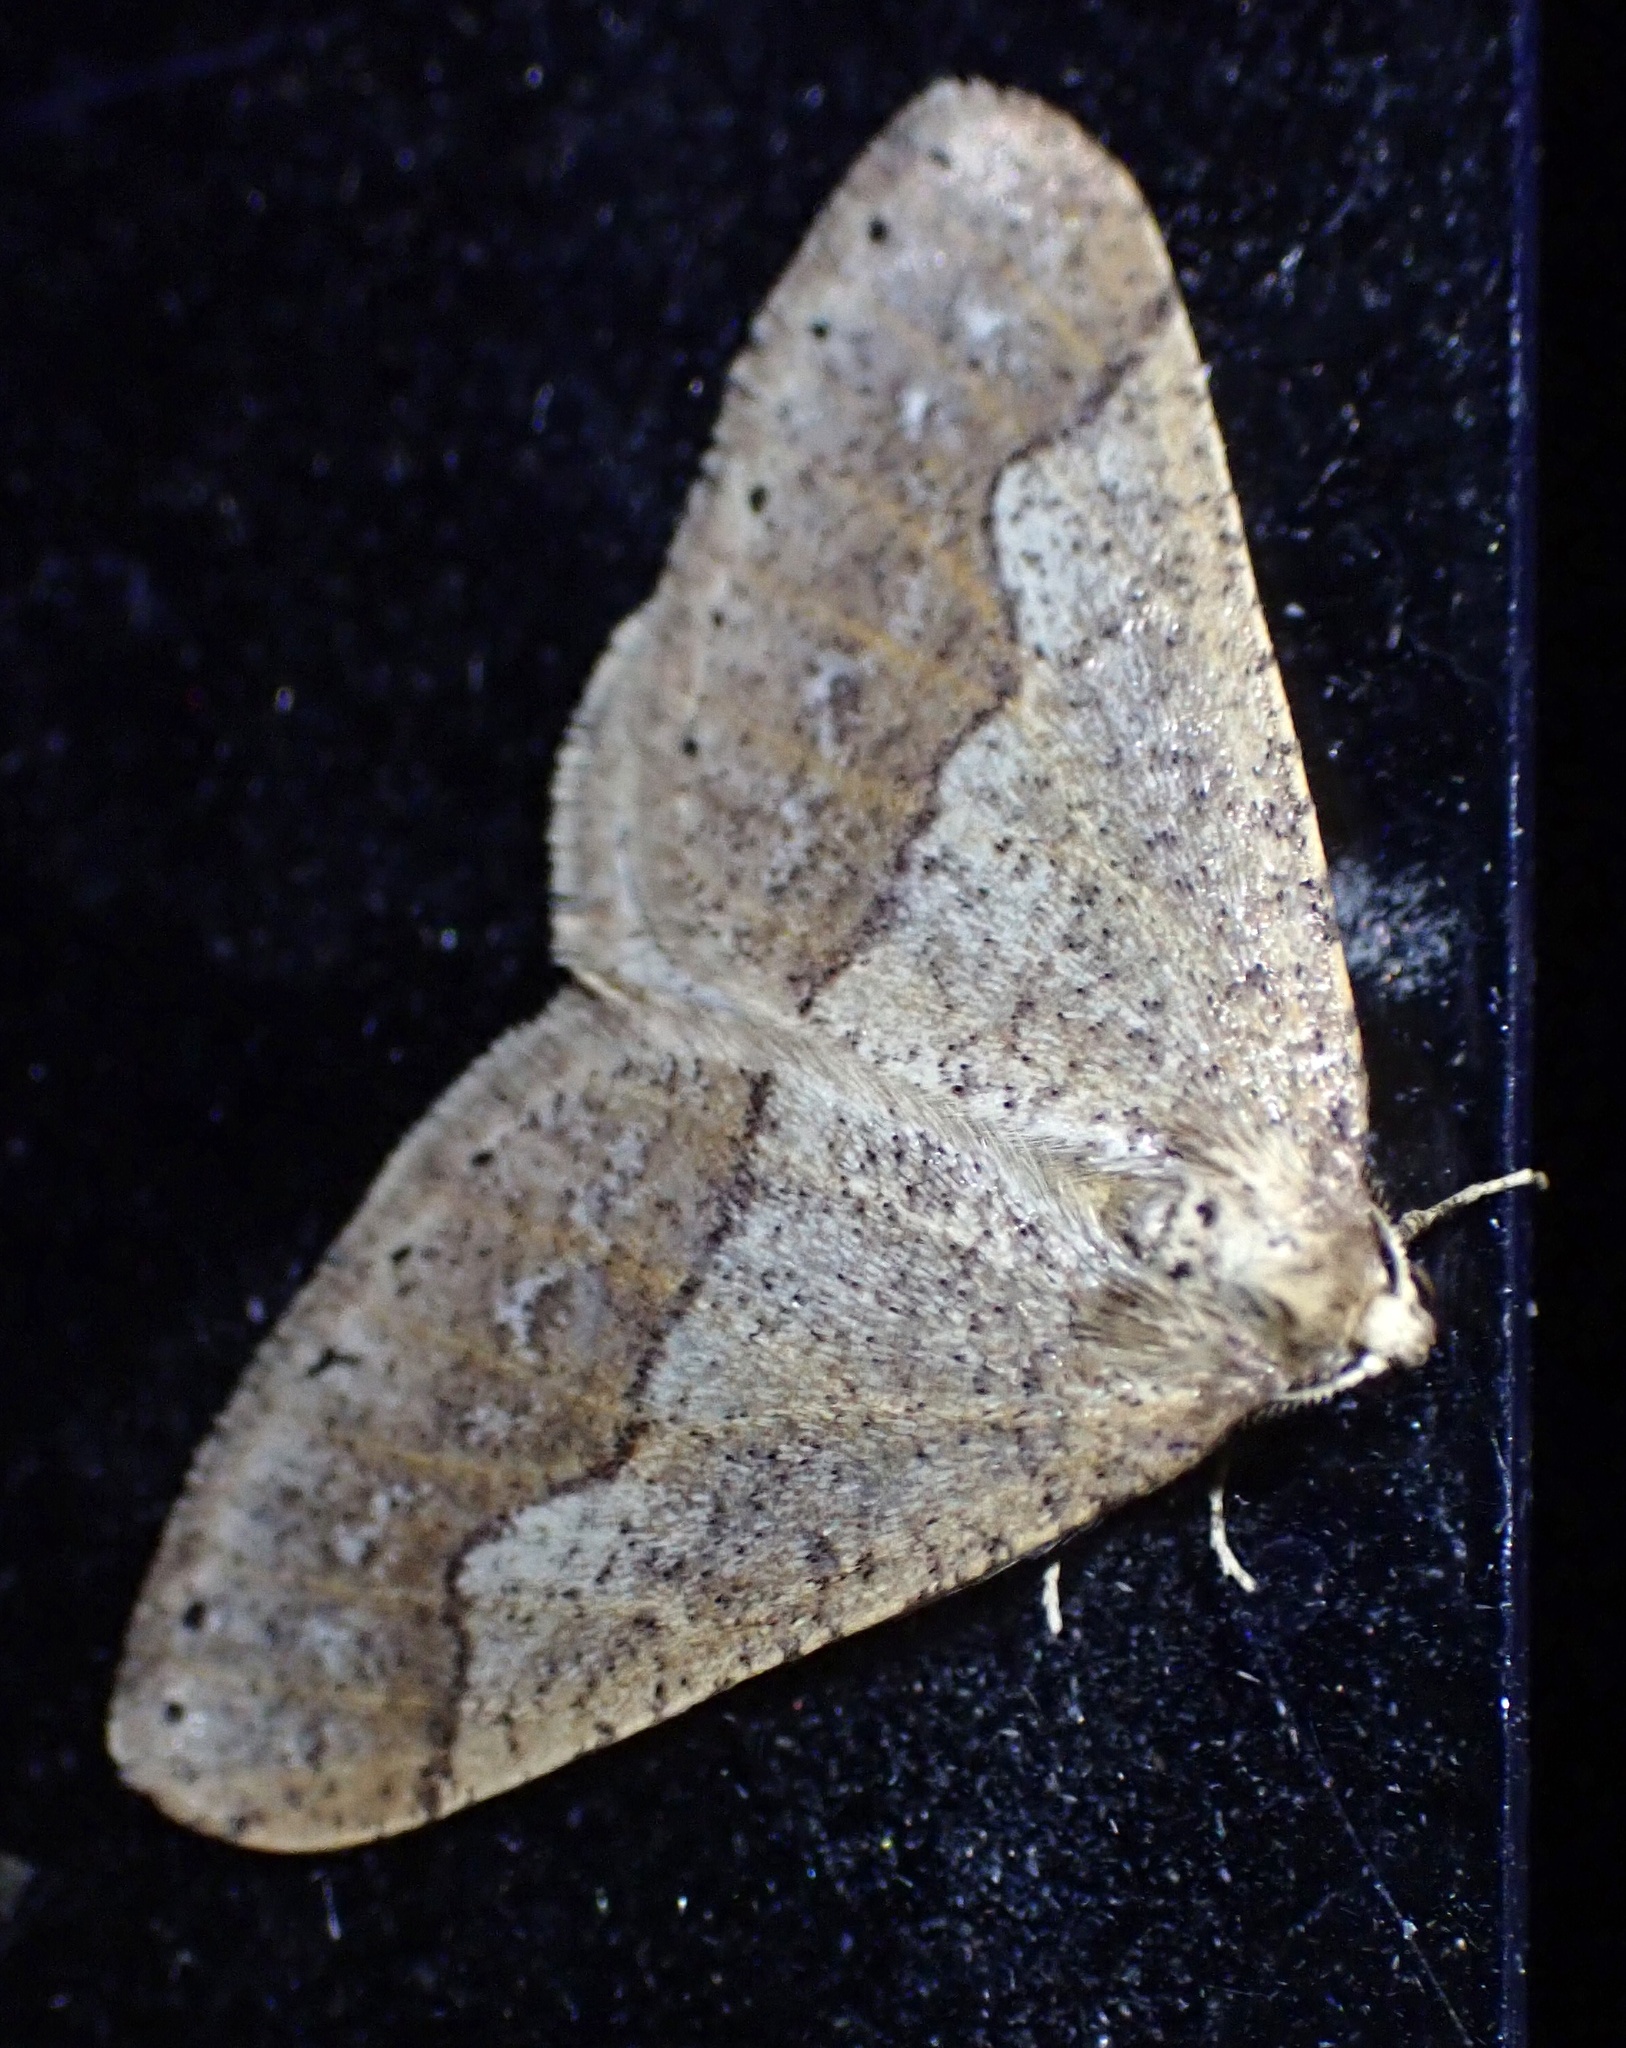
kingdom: Animalia
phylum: Arthropoda
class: Insecta
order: Lepidoptera
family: Geometridae
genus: Agriopis
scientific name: Agriopis marginaria
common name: Dotted border
